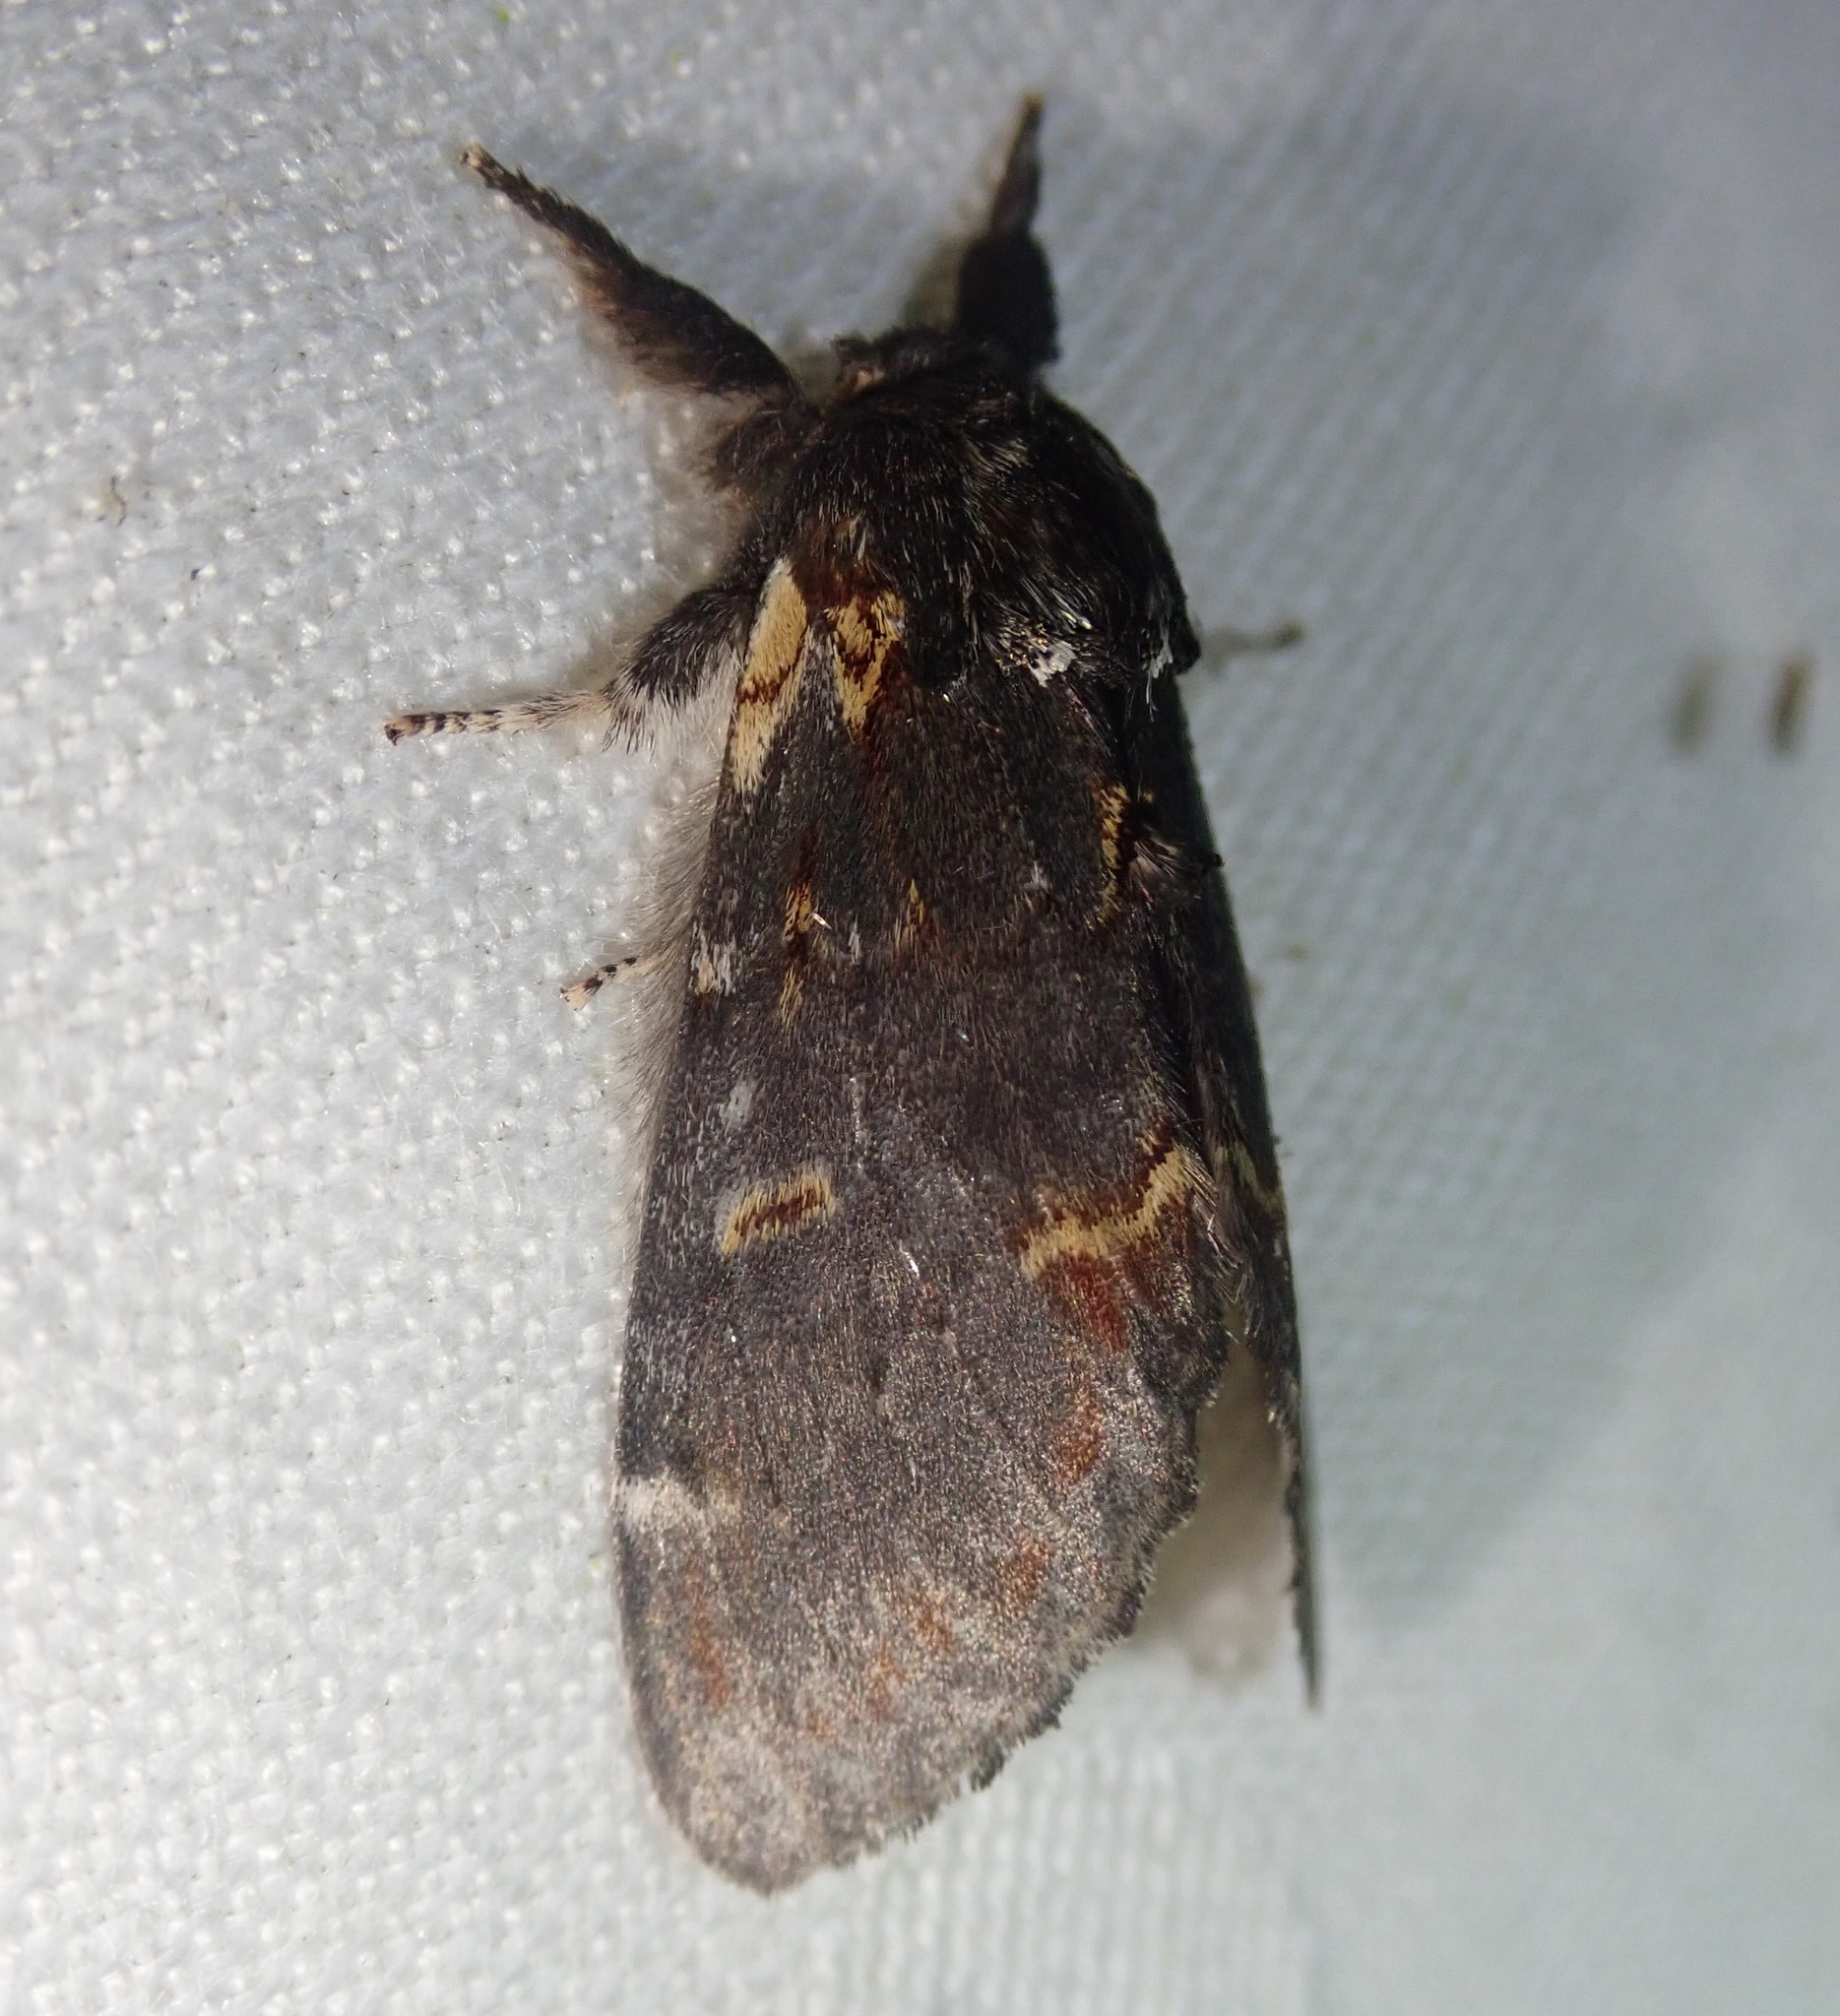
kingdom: Animalia
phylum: Arthropoda
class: Insecta
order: Lepidoptera
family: Notodontidae
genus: Notodonta
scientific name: Notodonta dromedarius
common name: Iron prominent
